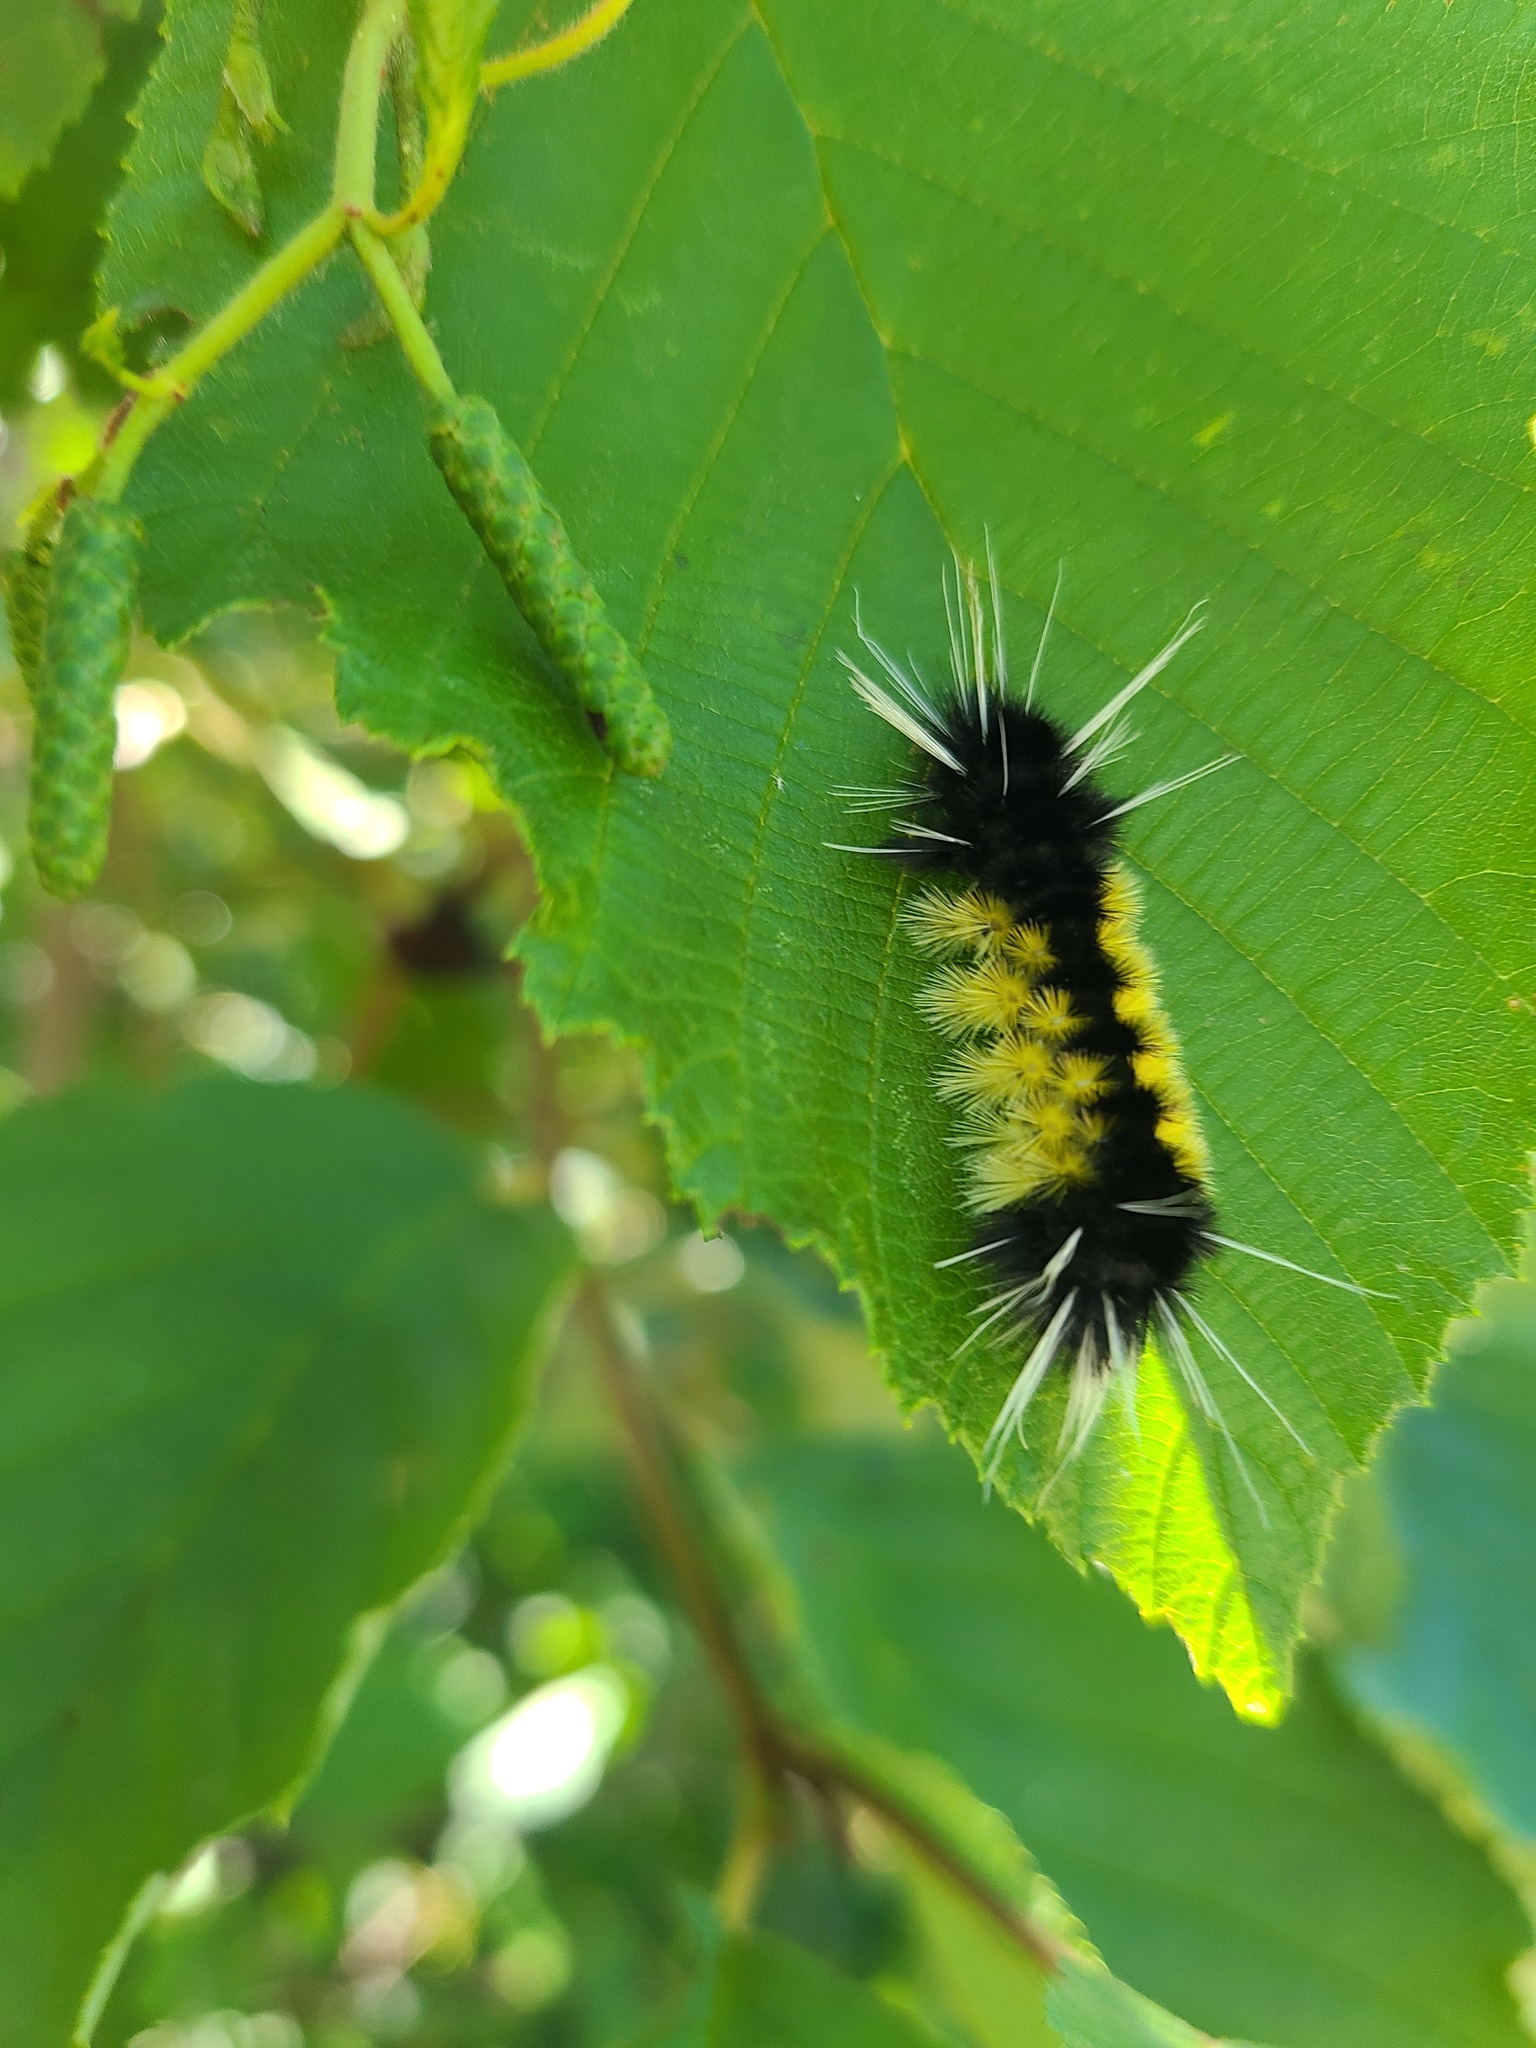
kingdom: Animalia
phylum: Arthropoda
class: Insecta
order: Lepidoptera
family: Erebidae
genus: Lophocampa
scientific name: Lophocampa maculata
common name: Spotted tussock moth
